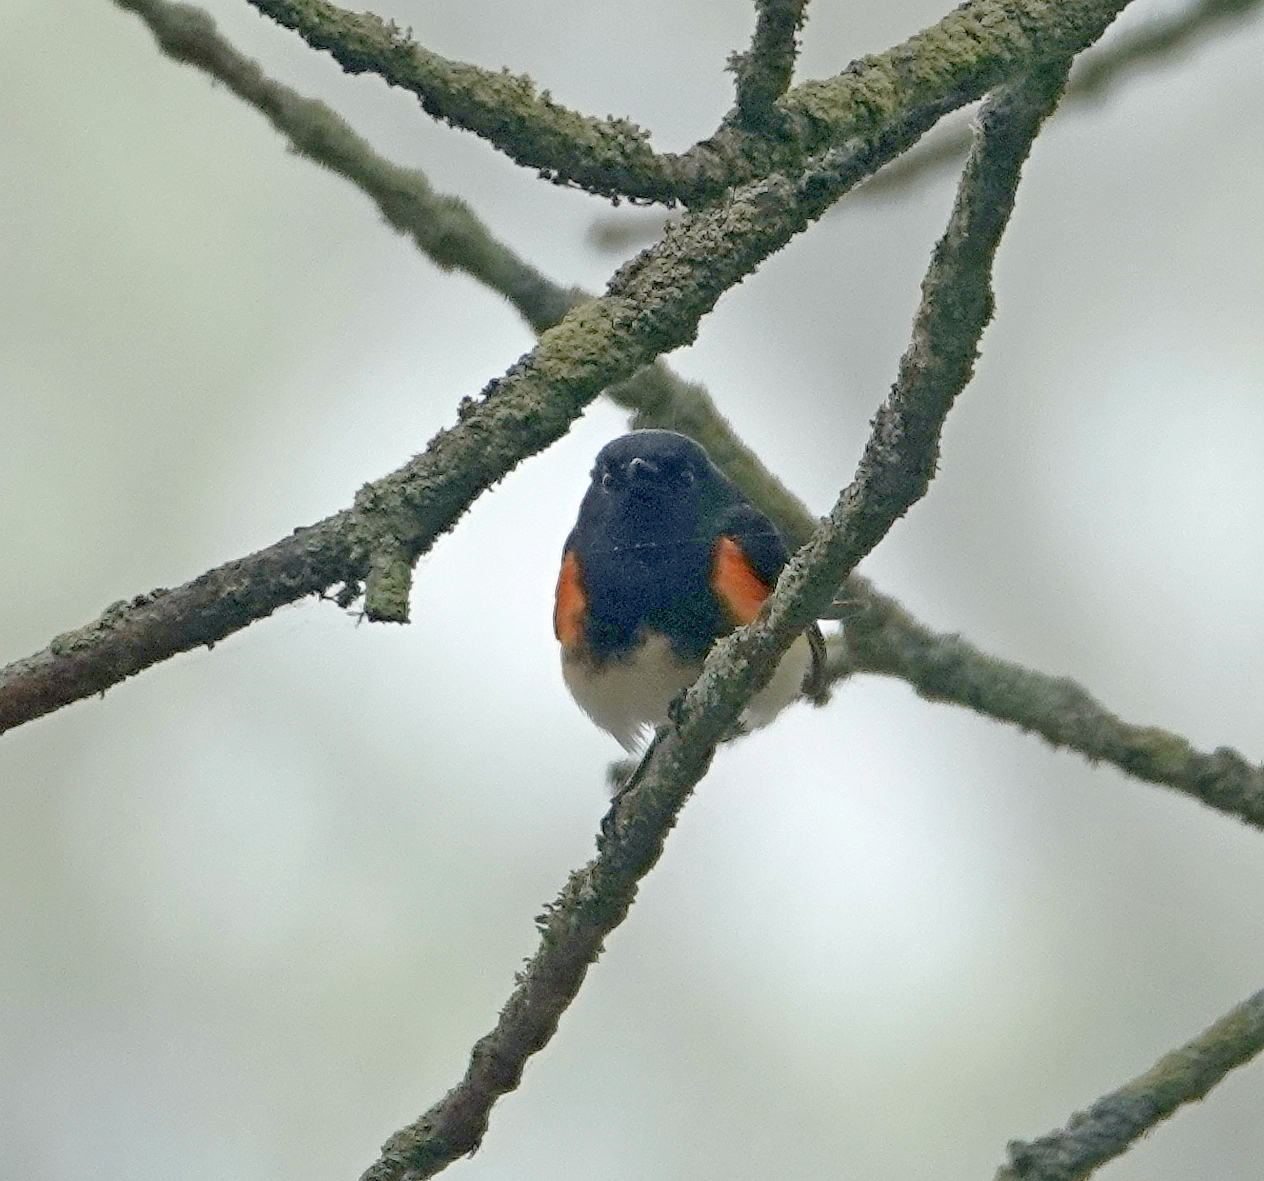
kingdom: Animalia
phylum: Chordata
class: Aves
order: Passeriformes
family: Parulidae
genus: Setophaga
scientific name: Setophaga ruticilla
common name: American redstart
